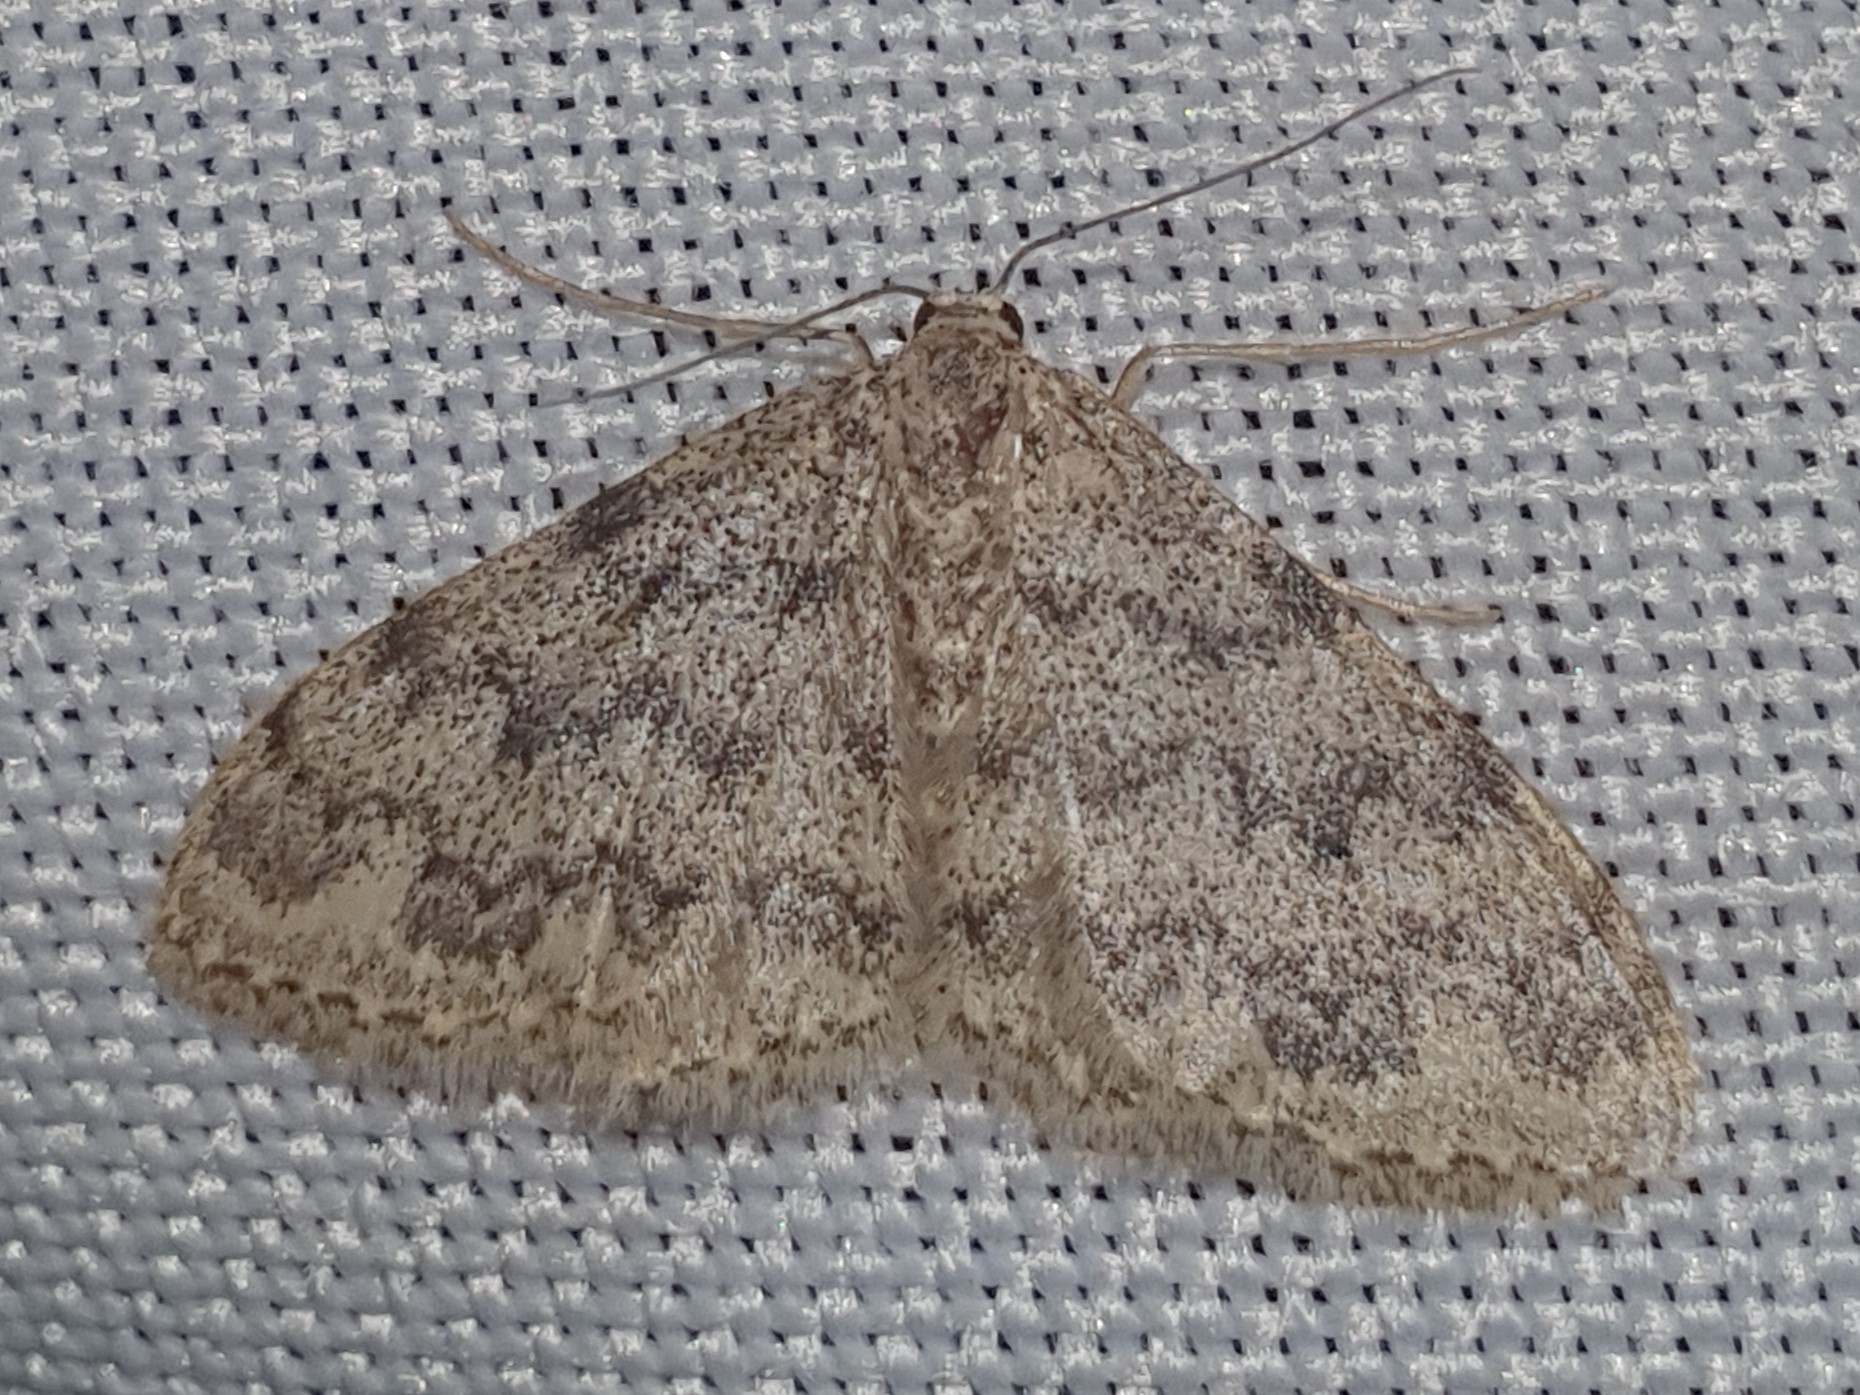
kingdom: Animalia
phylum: Arthropoda
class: Insecta
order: Lepidoptera
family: Geometridae
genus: Idaea
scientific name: Idaea contiguaria
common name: Weaver's wave
